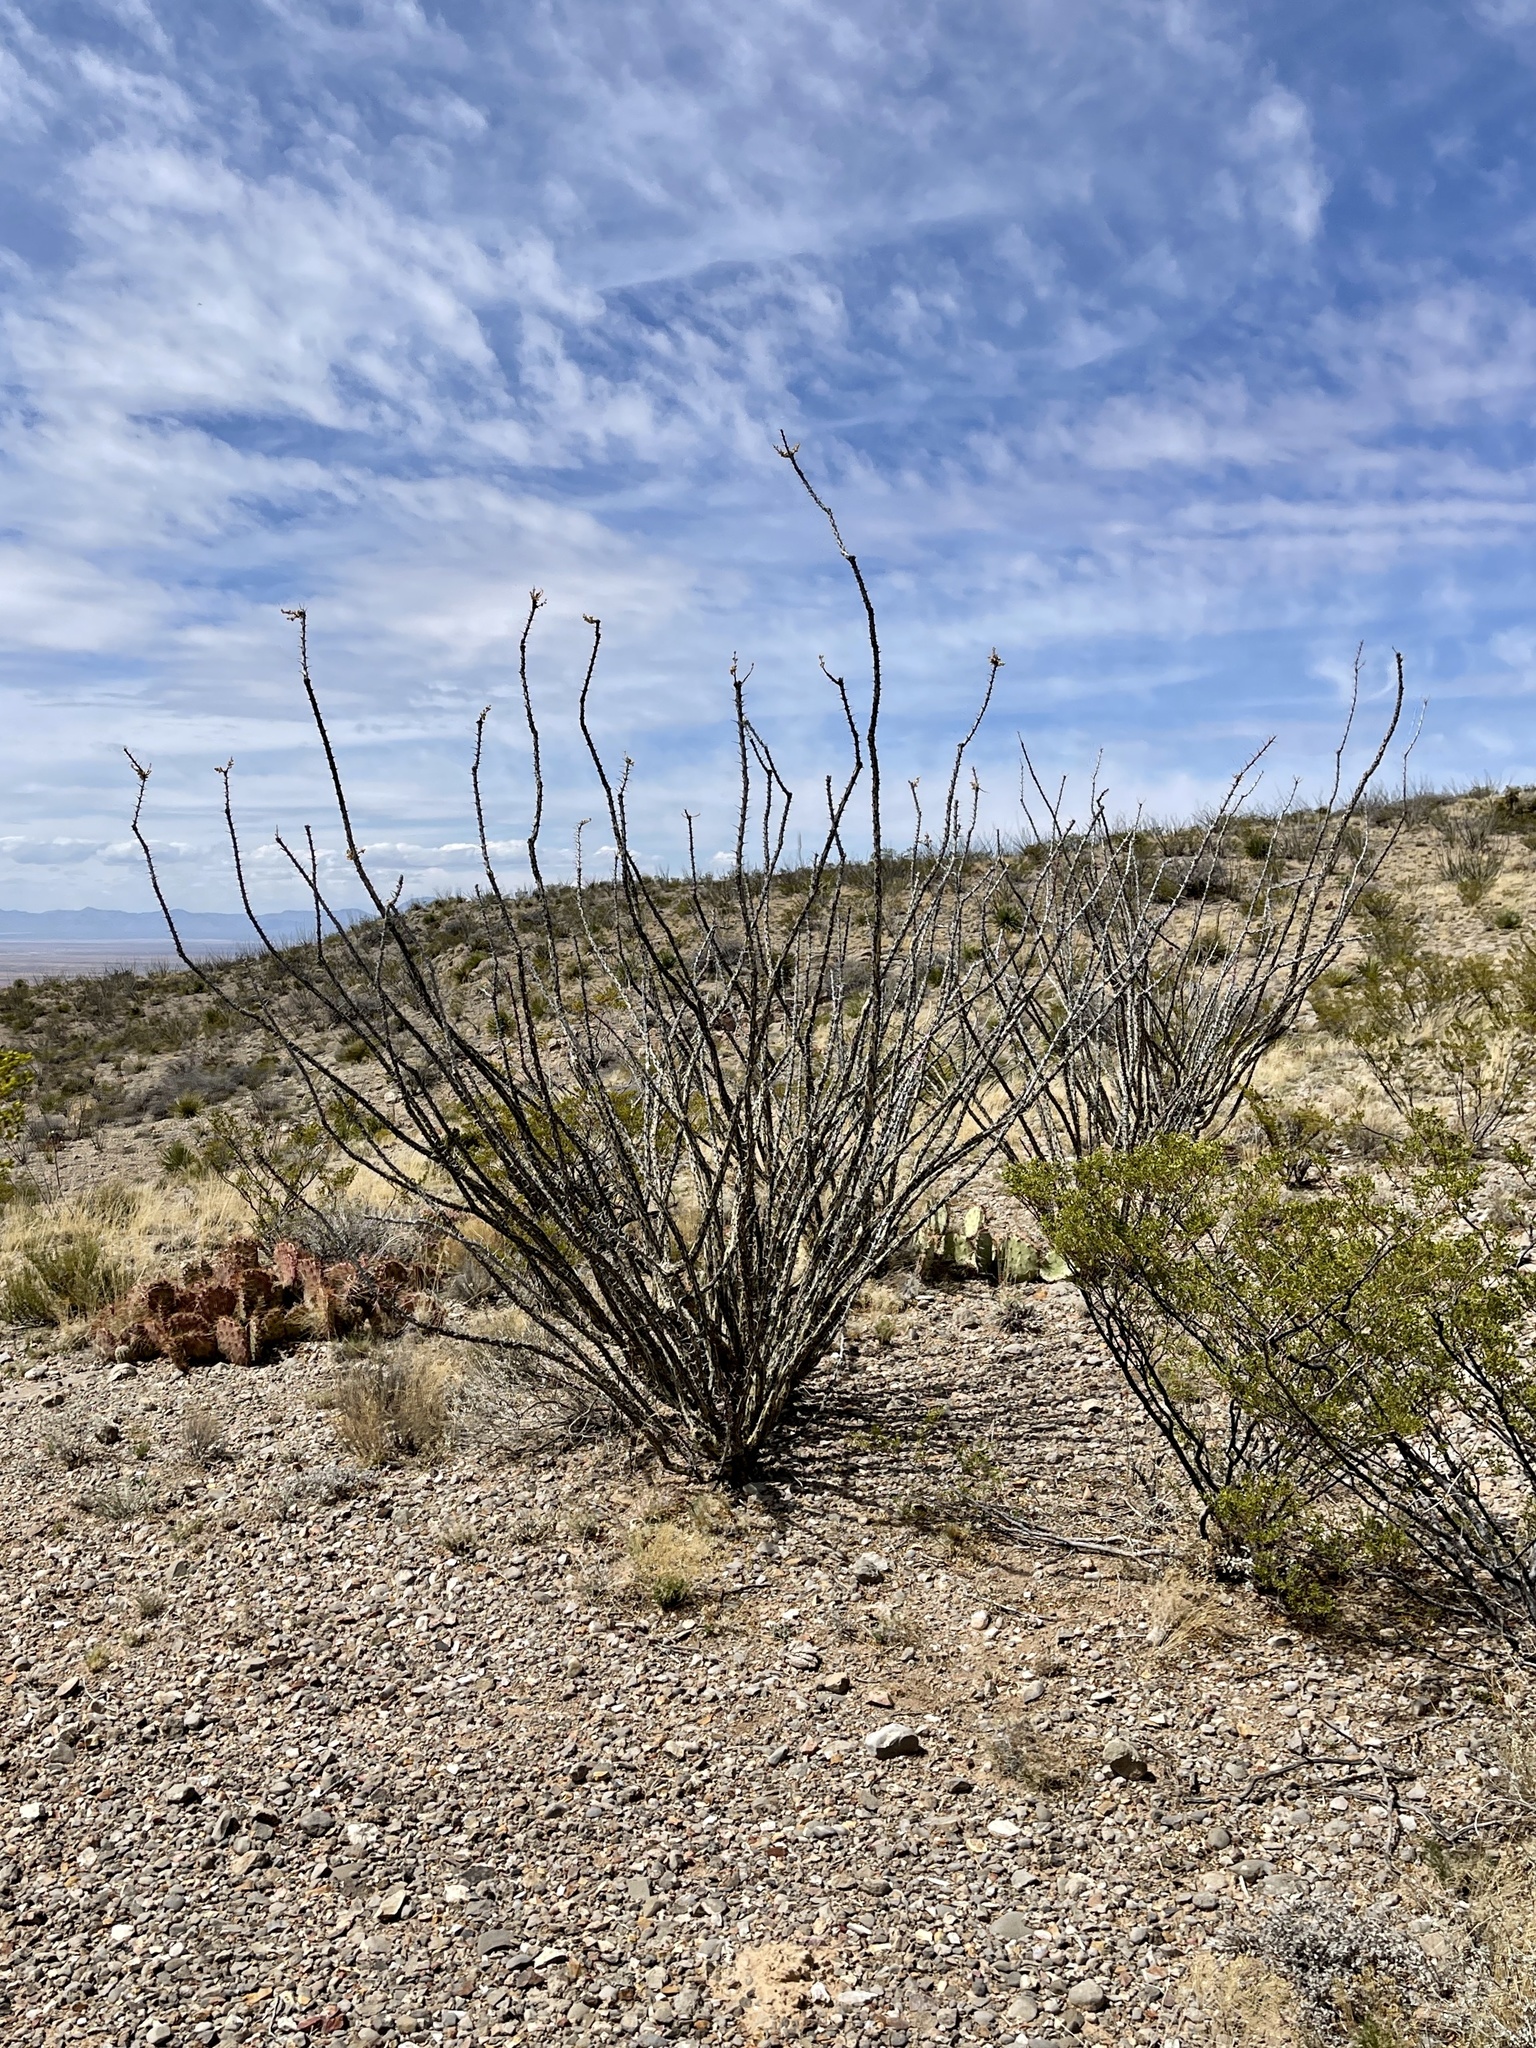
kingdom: Plantae
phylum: Tracheophyta
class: Magnoliopsida
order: Ericales
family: Fouquieriaceae
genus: Fouquieria
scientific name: Fouquieria splendens
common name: Vine-cactus
